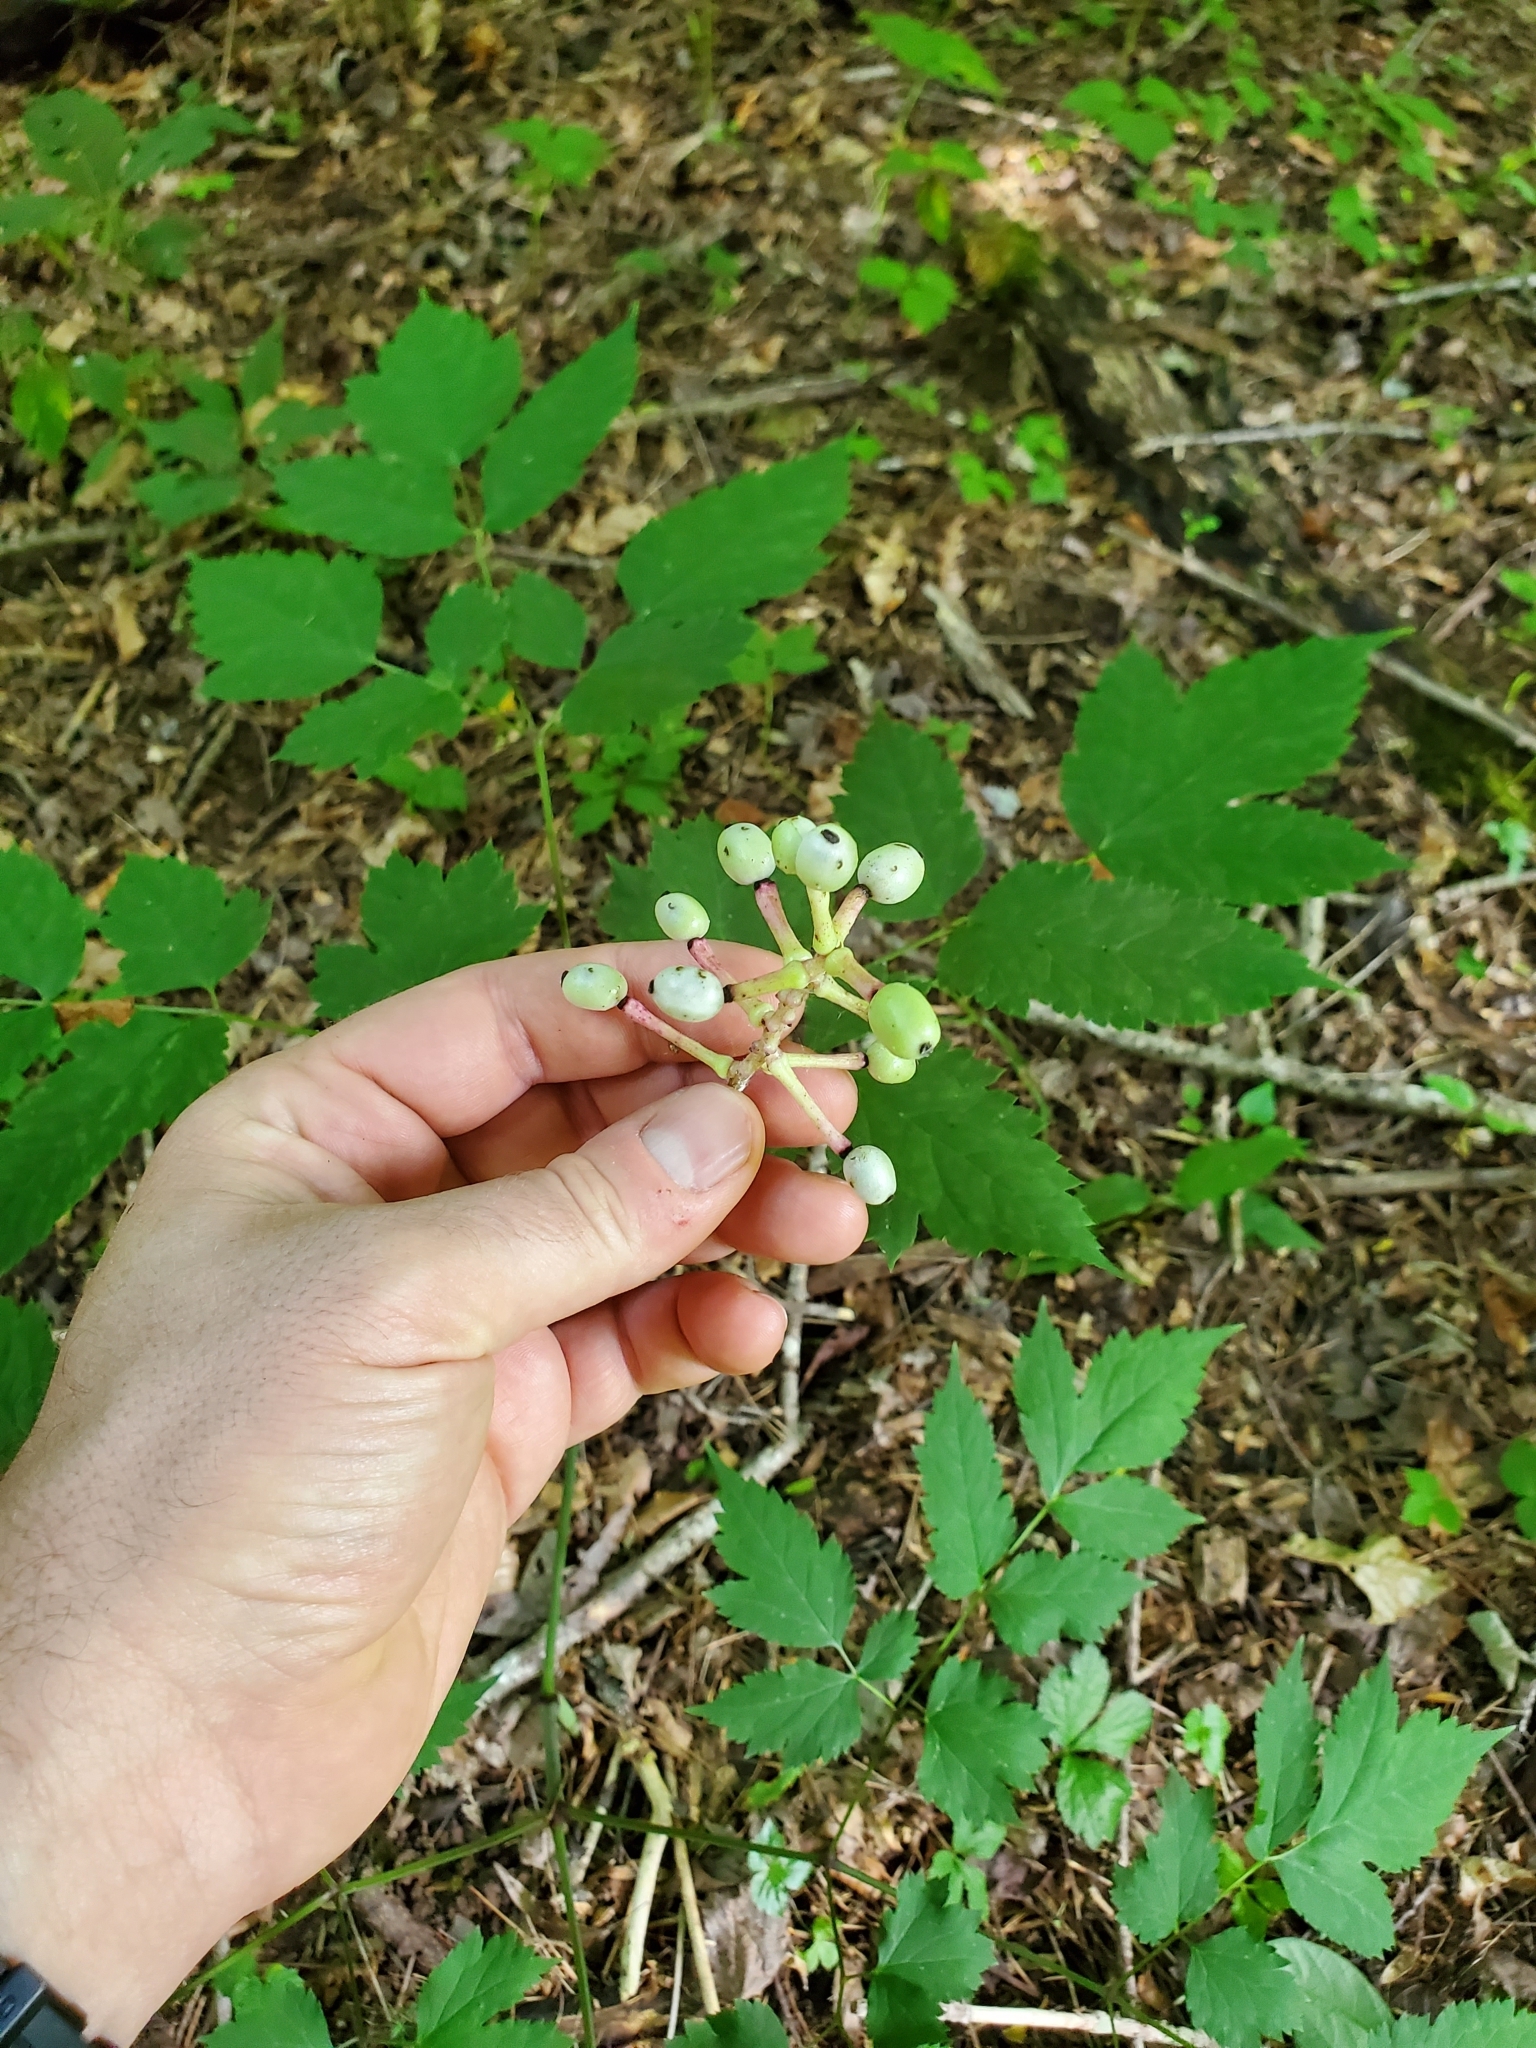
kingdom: Plantae
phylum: Tracheophyta
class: Magnoliopsida
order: Ranunculales
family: Ranunculaceae
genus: Actaea
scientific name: Actaea pachypoda
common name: Doll's-eyes
